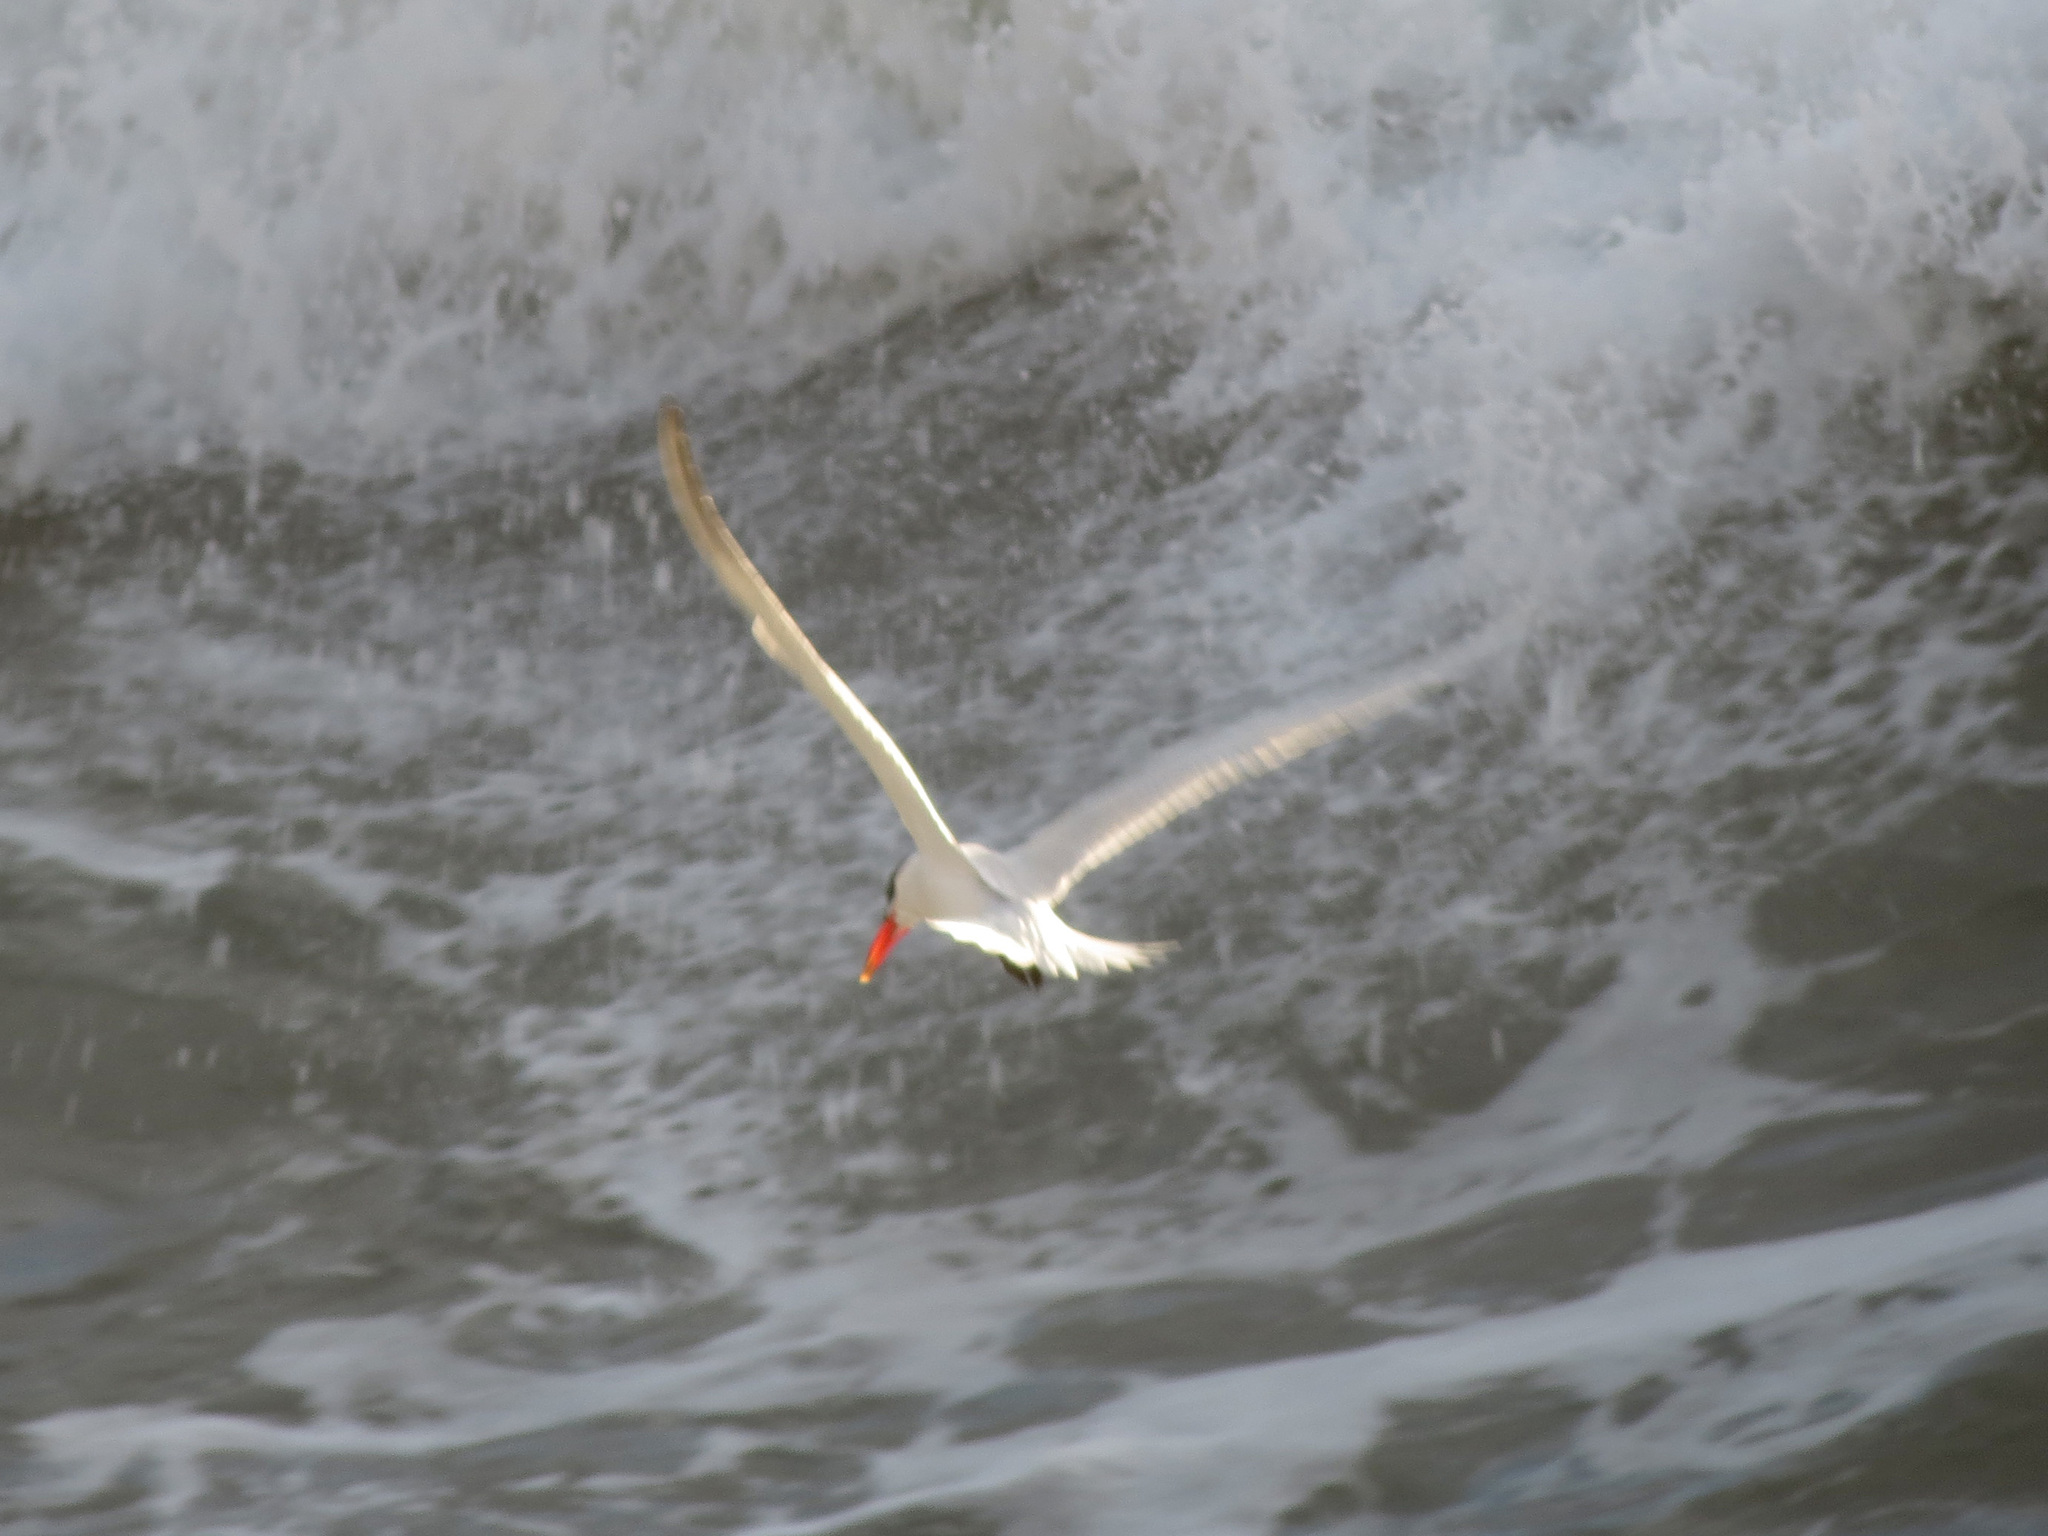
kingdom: Animalia
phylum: Chordata
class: Aves
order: Charadriiformes
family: Laridae
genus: Hydroprogne
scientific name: Hydroprogne caspia
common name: Caspian tern
